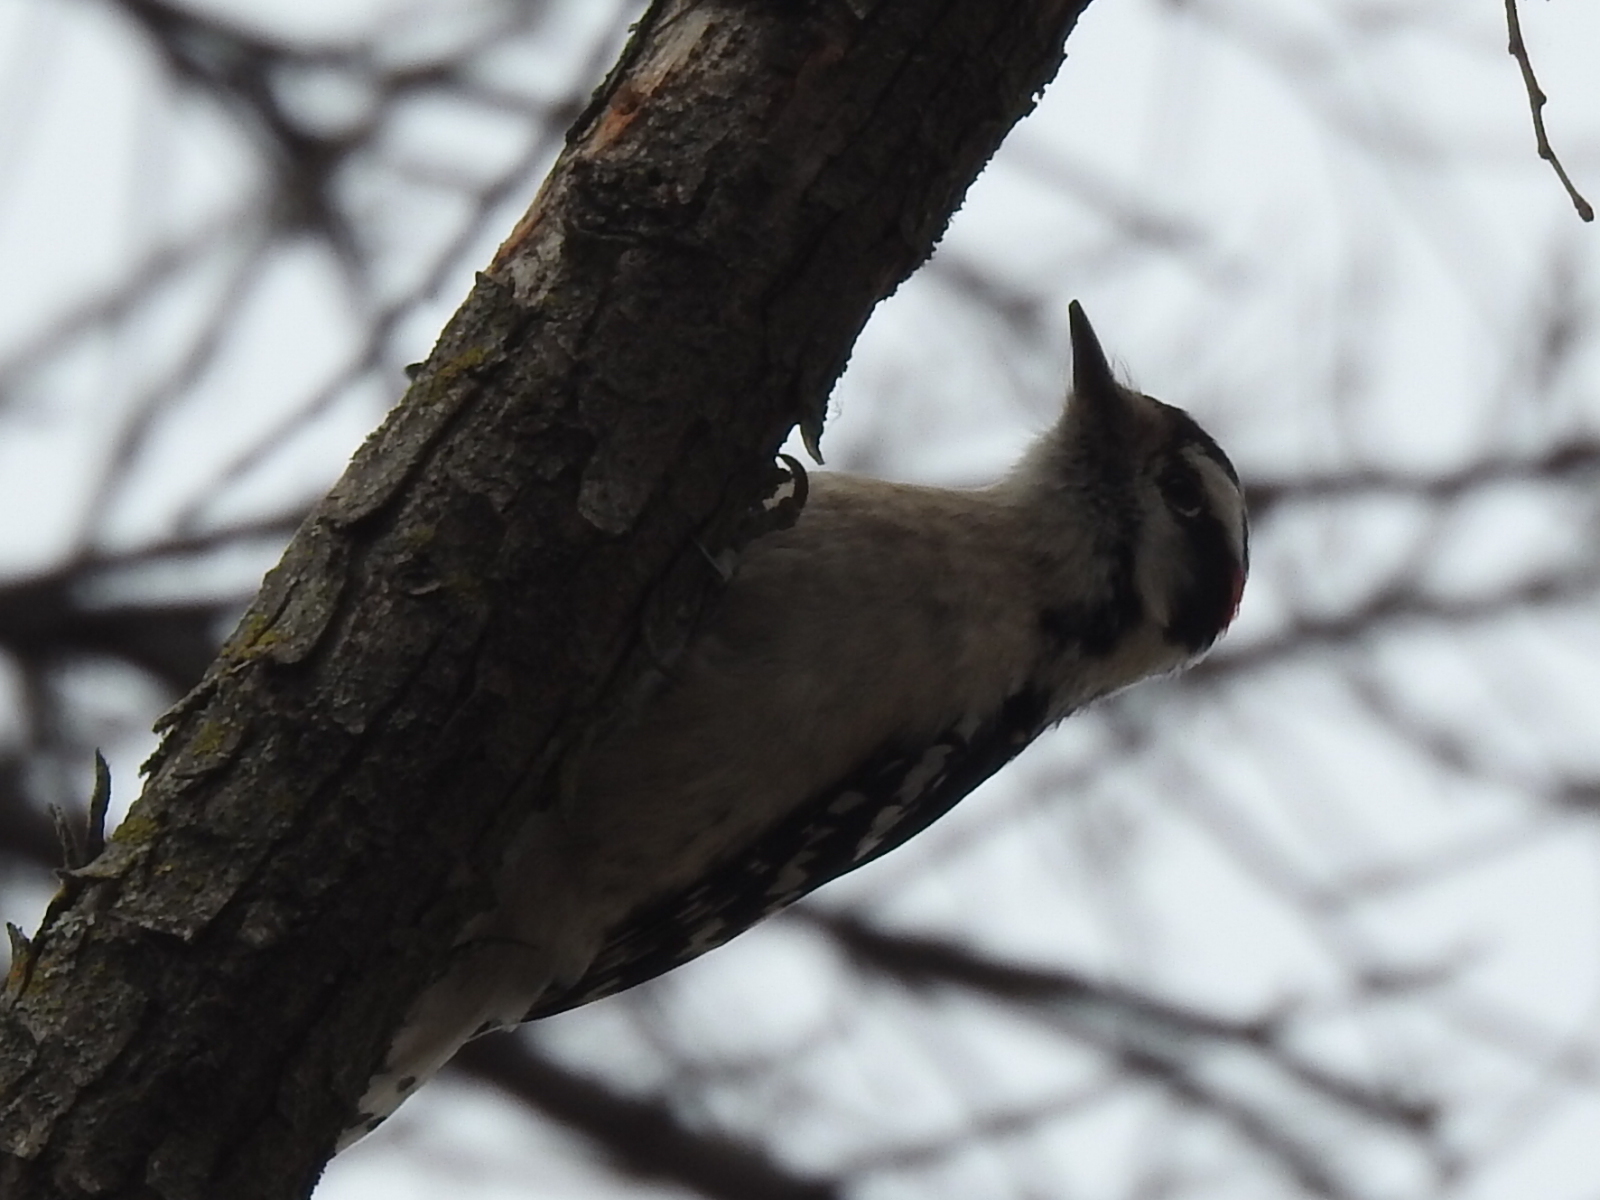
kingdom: Animalia
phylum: Chordata
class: Aves
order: Piciformes
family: Picidae
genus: Dryobates
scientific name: Dryobates pubescens
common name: Downy woodpecker
